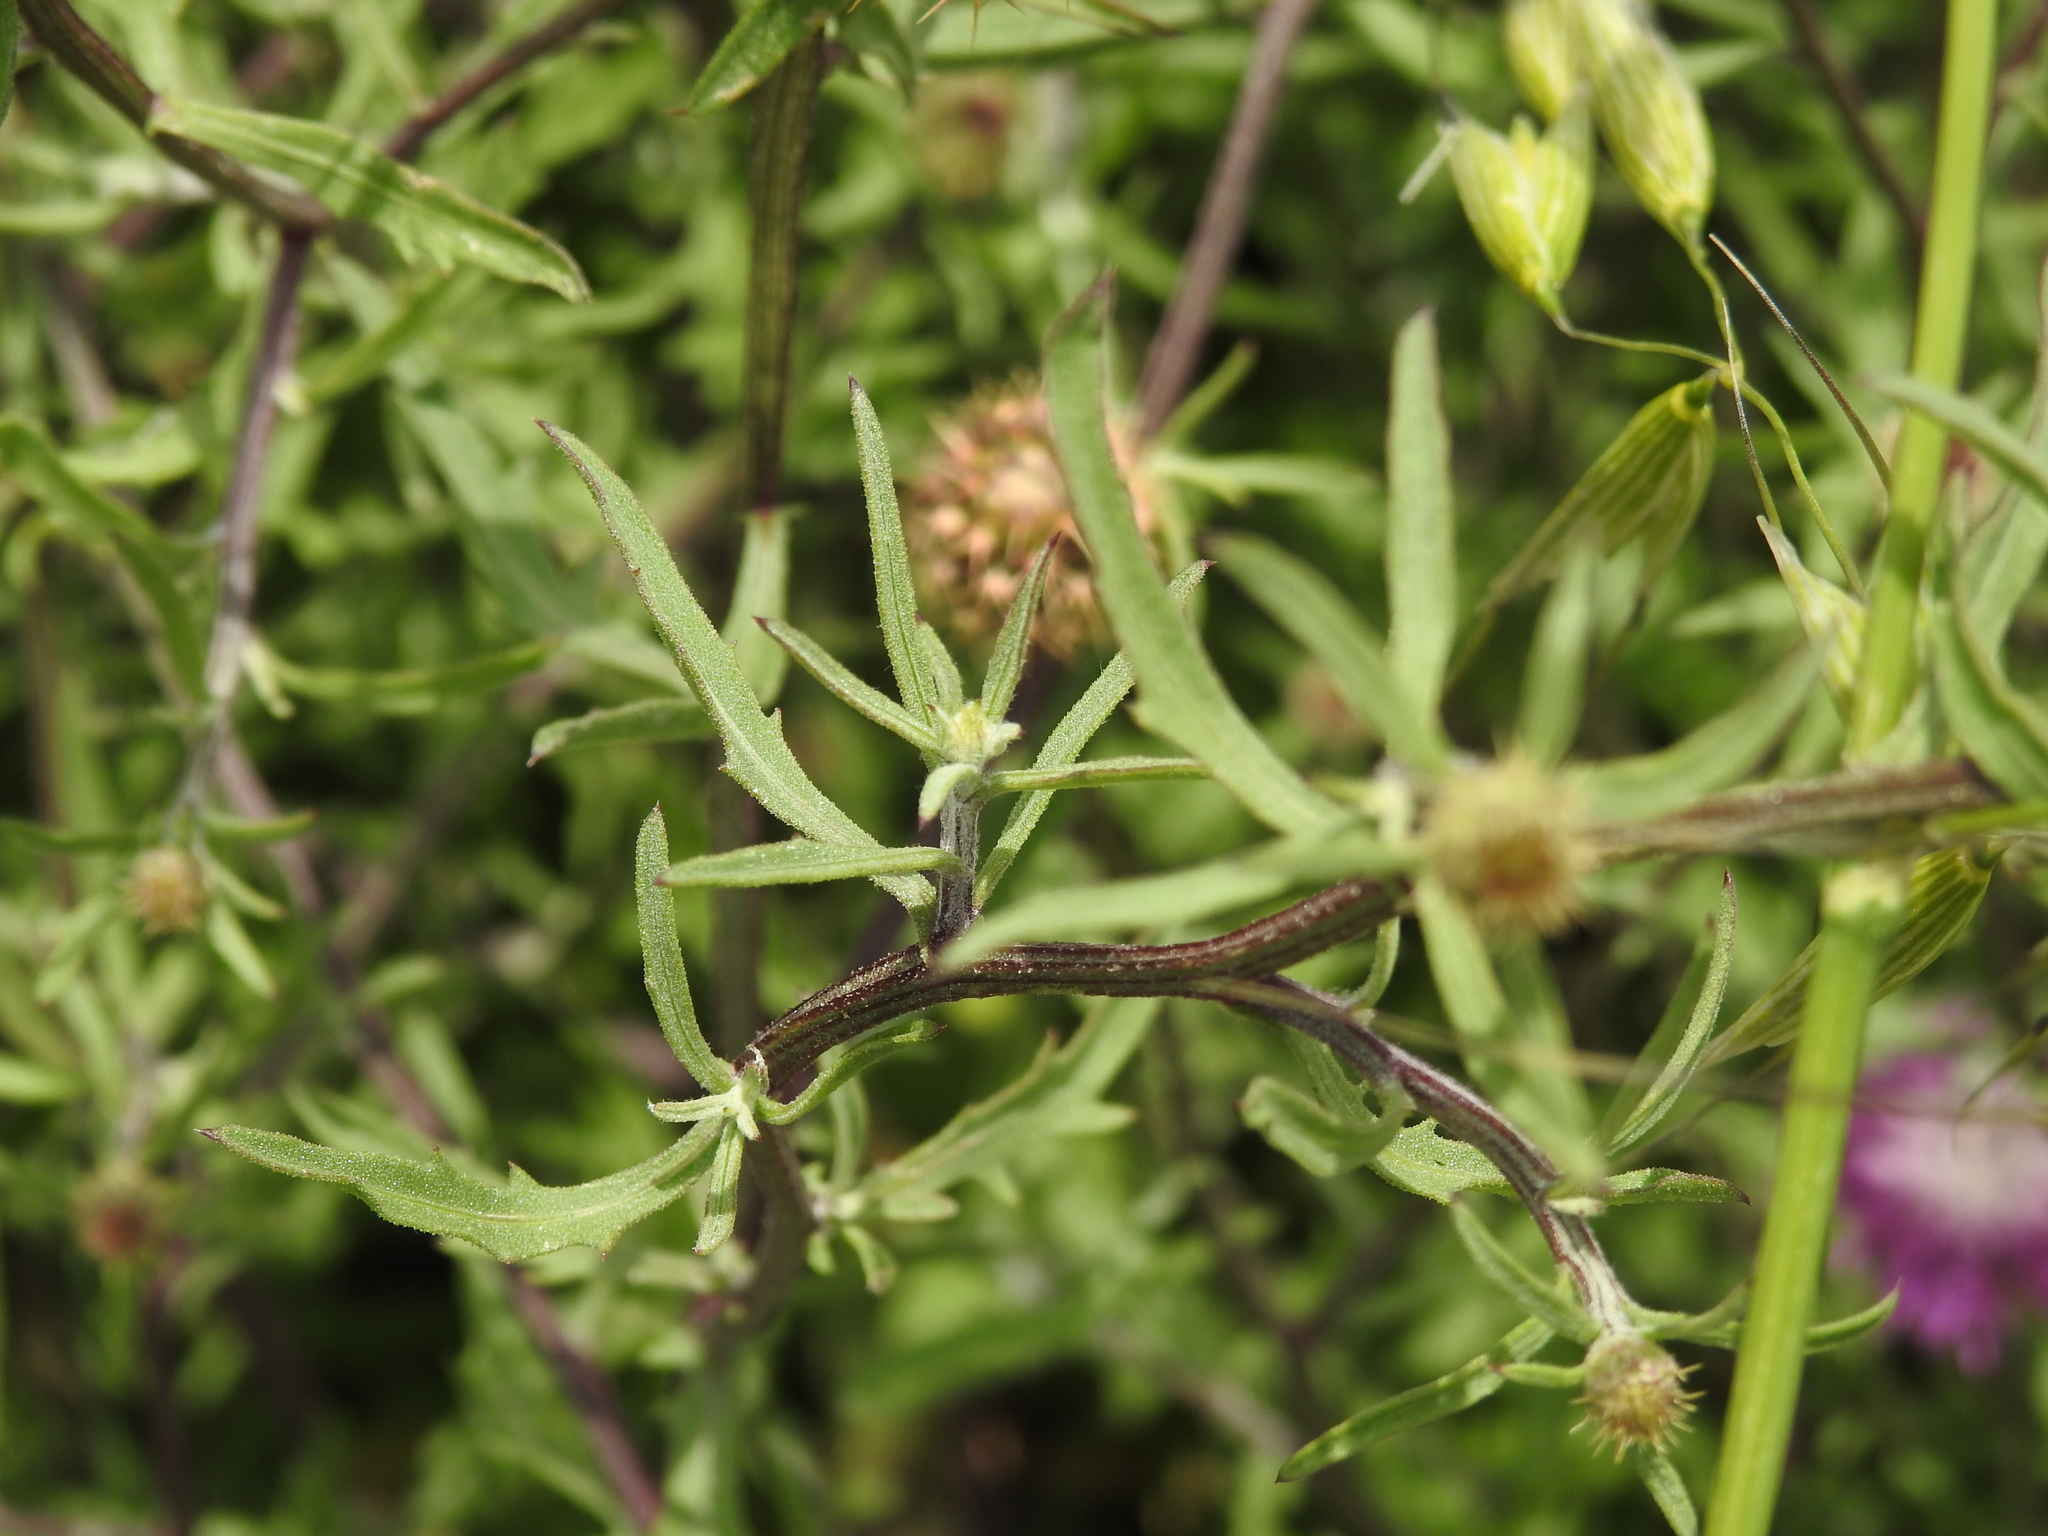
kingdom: Plantae
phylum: Tracheophyta
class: Magnoliopsida
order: Asterales
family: Asteraceae
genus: Centaurea
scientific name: Centaurea aspera
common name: Rough star-thistle
